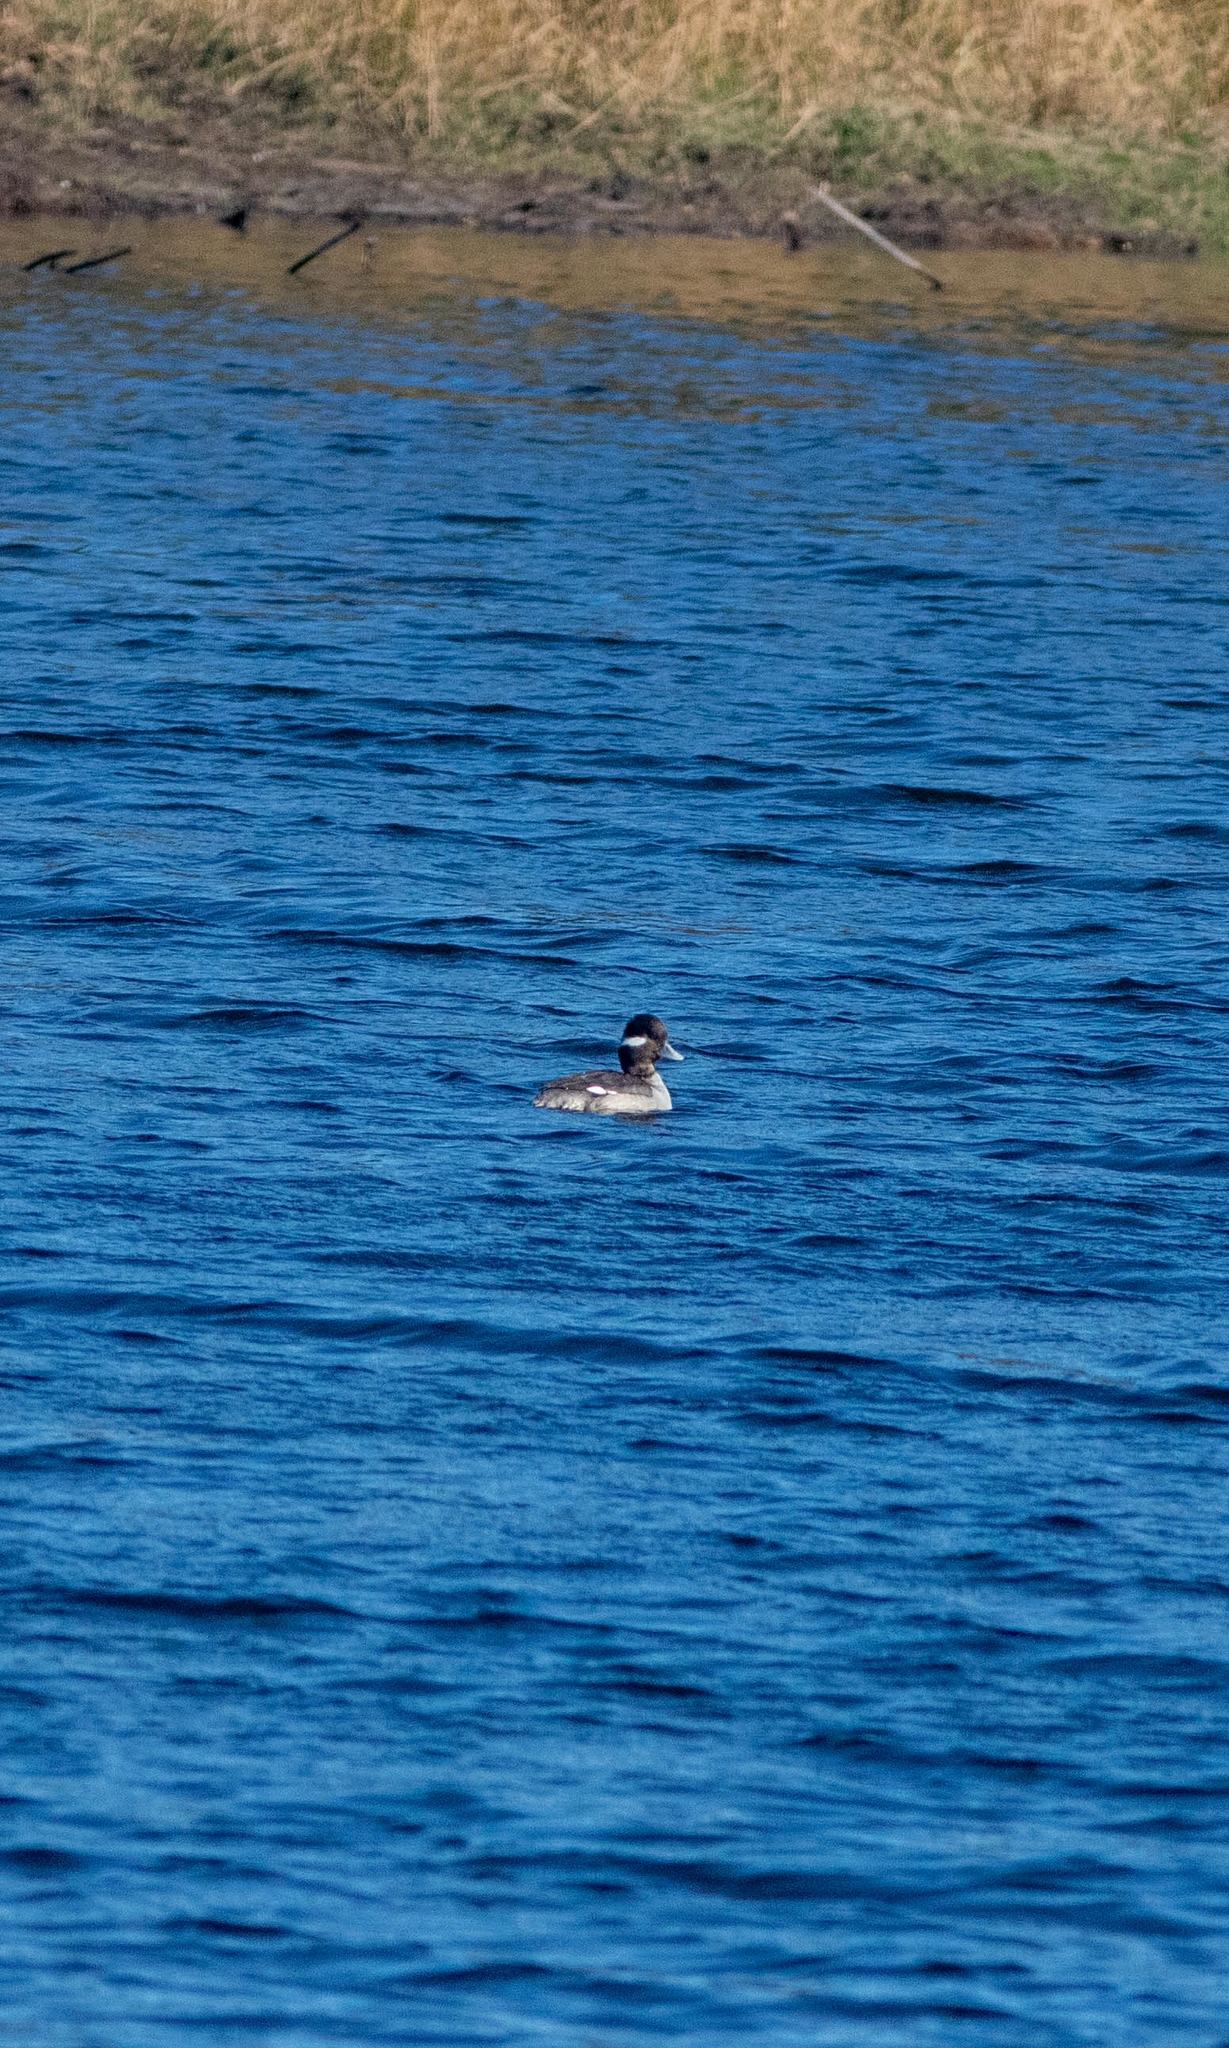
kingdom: Animalia
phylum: Chordata
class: Aves
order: Anseriformes
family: Anatidae
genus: Bucephala
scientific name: Bucephala albeola
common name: Bufflehead
